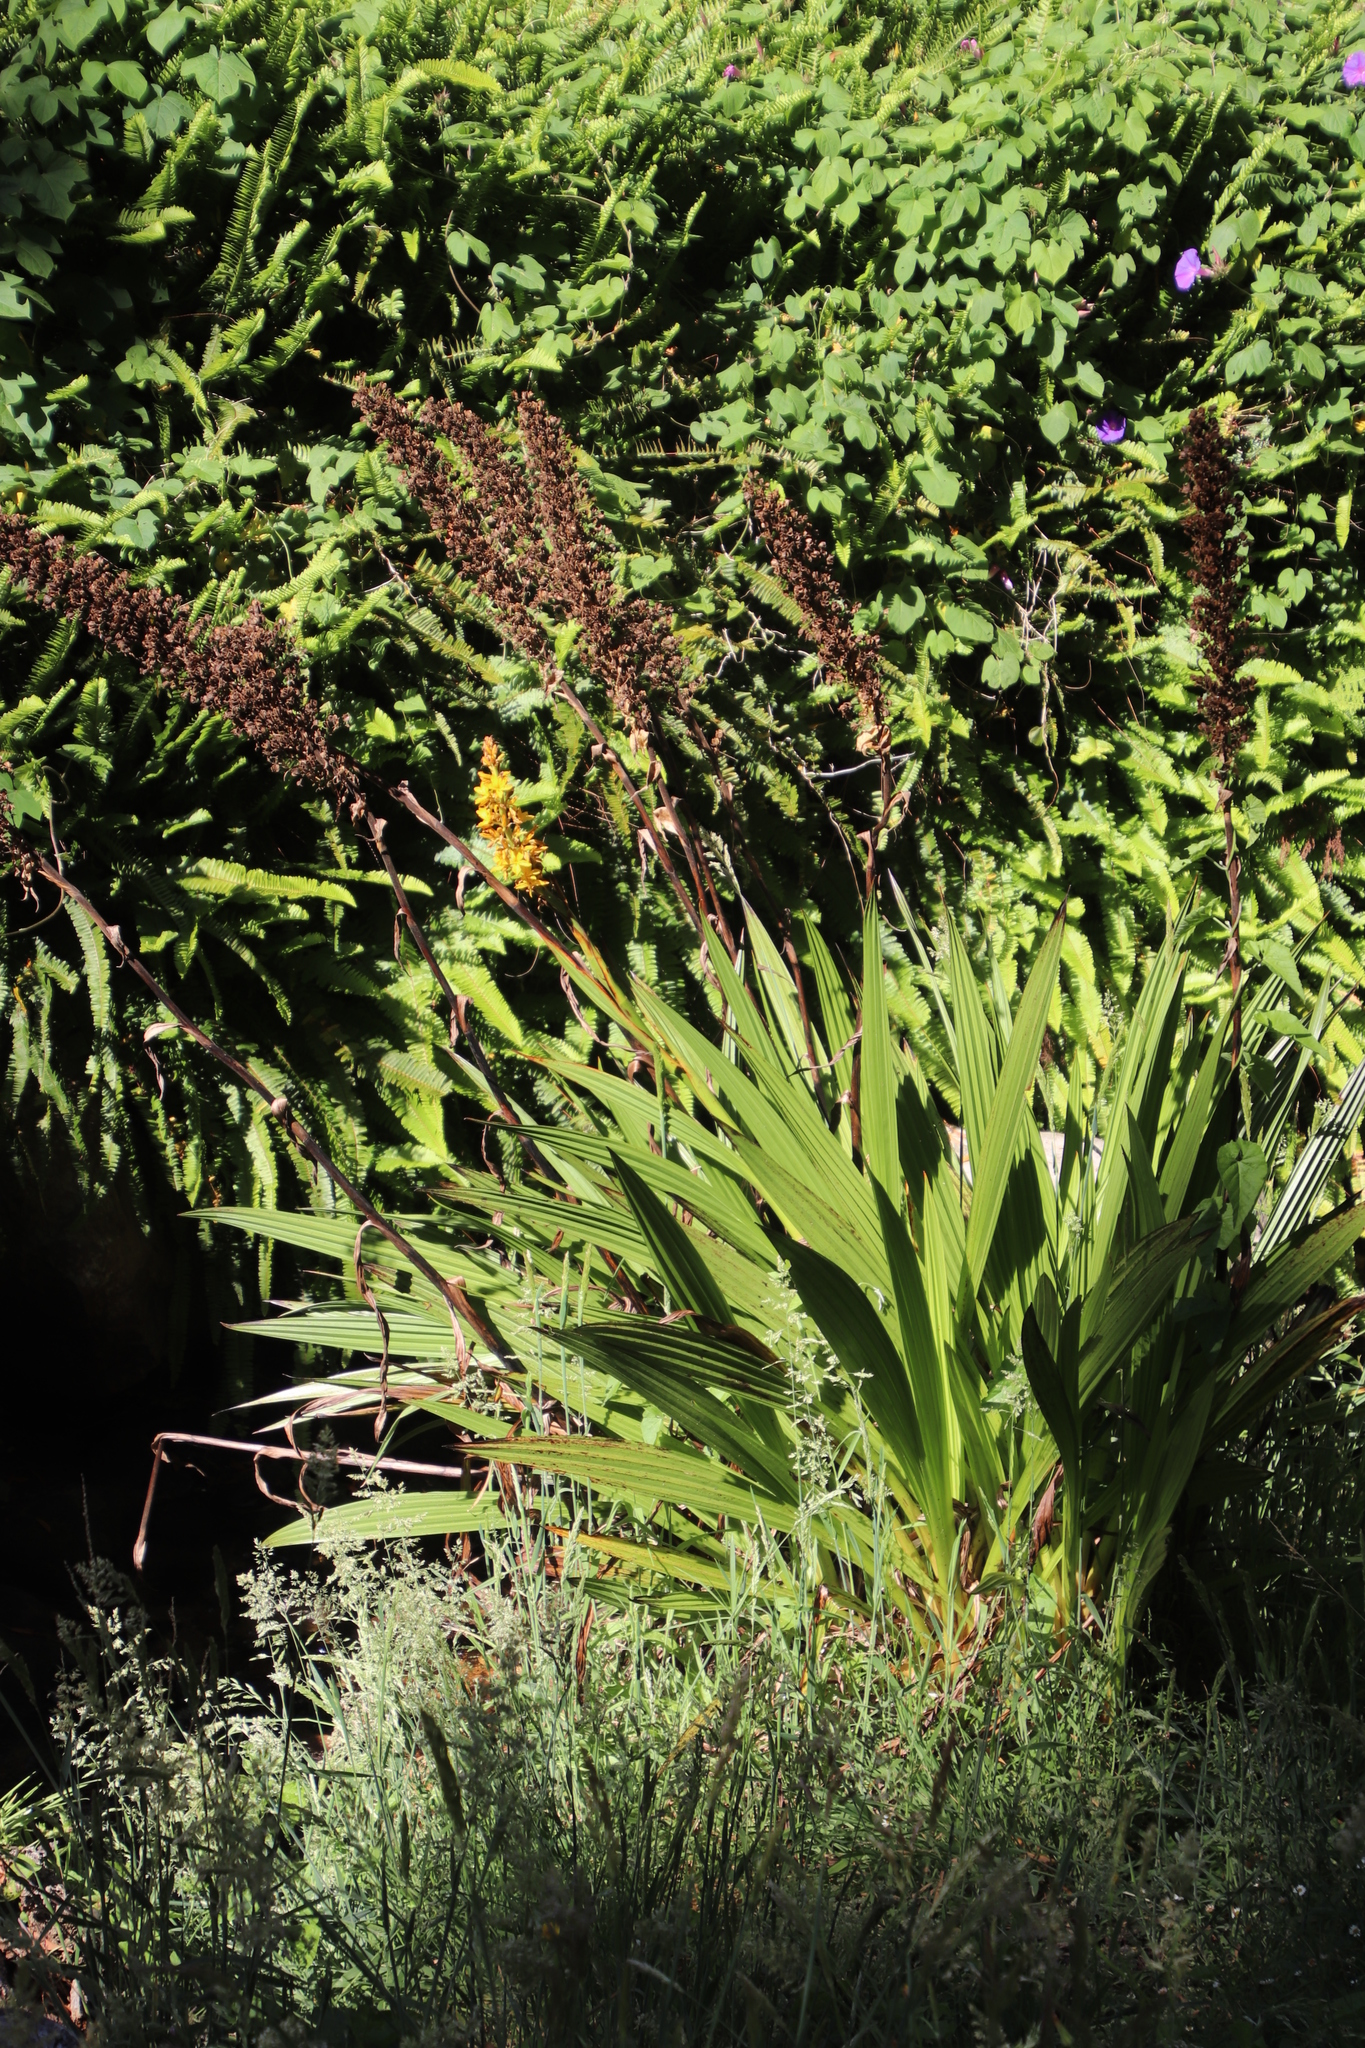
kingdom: Plantae
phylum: Tracheophyta
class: Liliopsida
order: Commelinales
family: Haemodoraceae
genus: Wachendorfia
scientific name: Wachendorfia thyrsiflora
